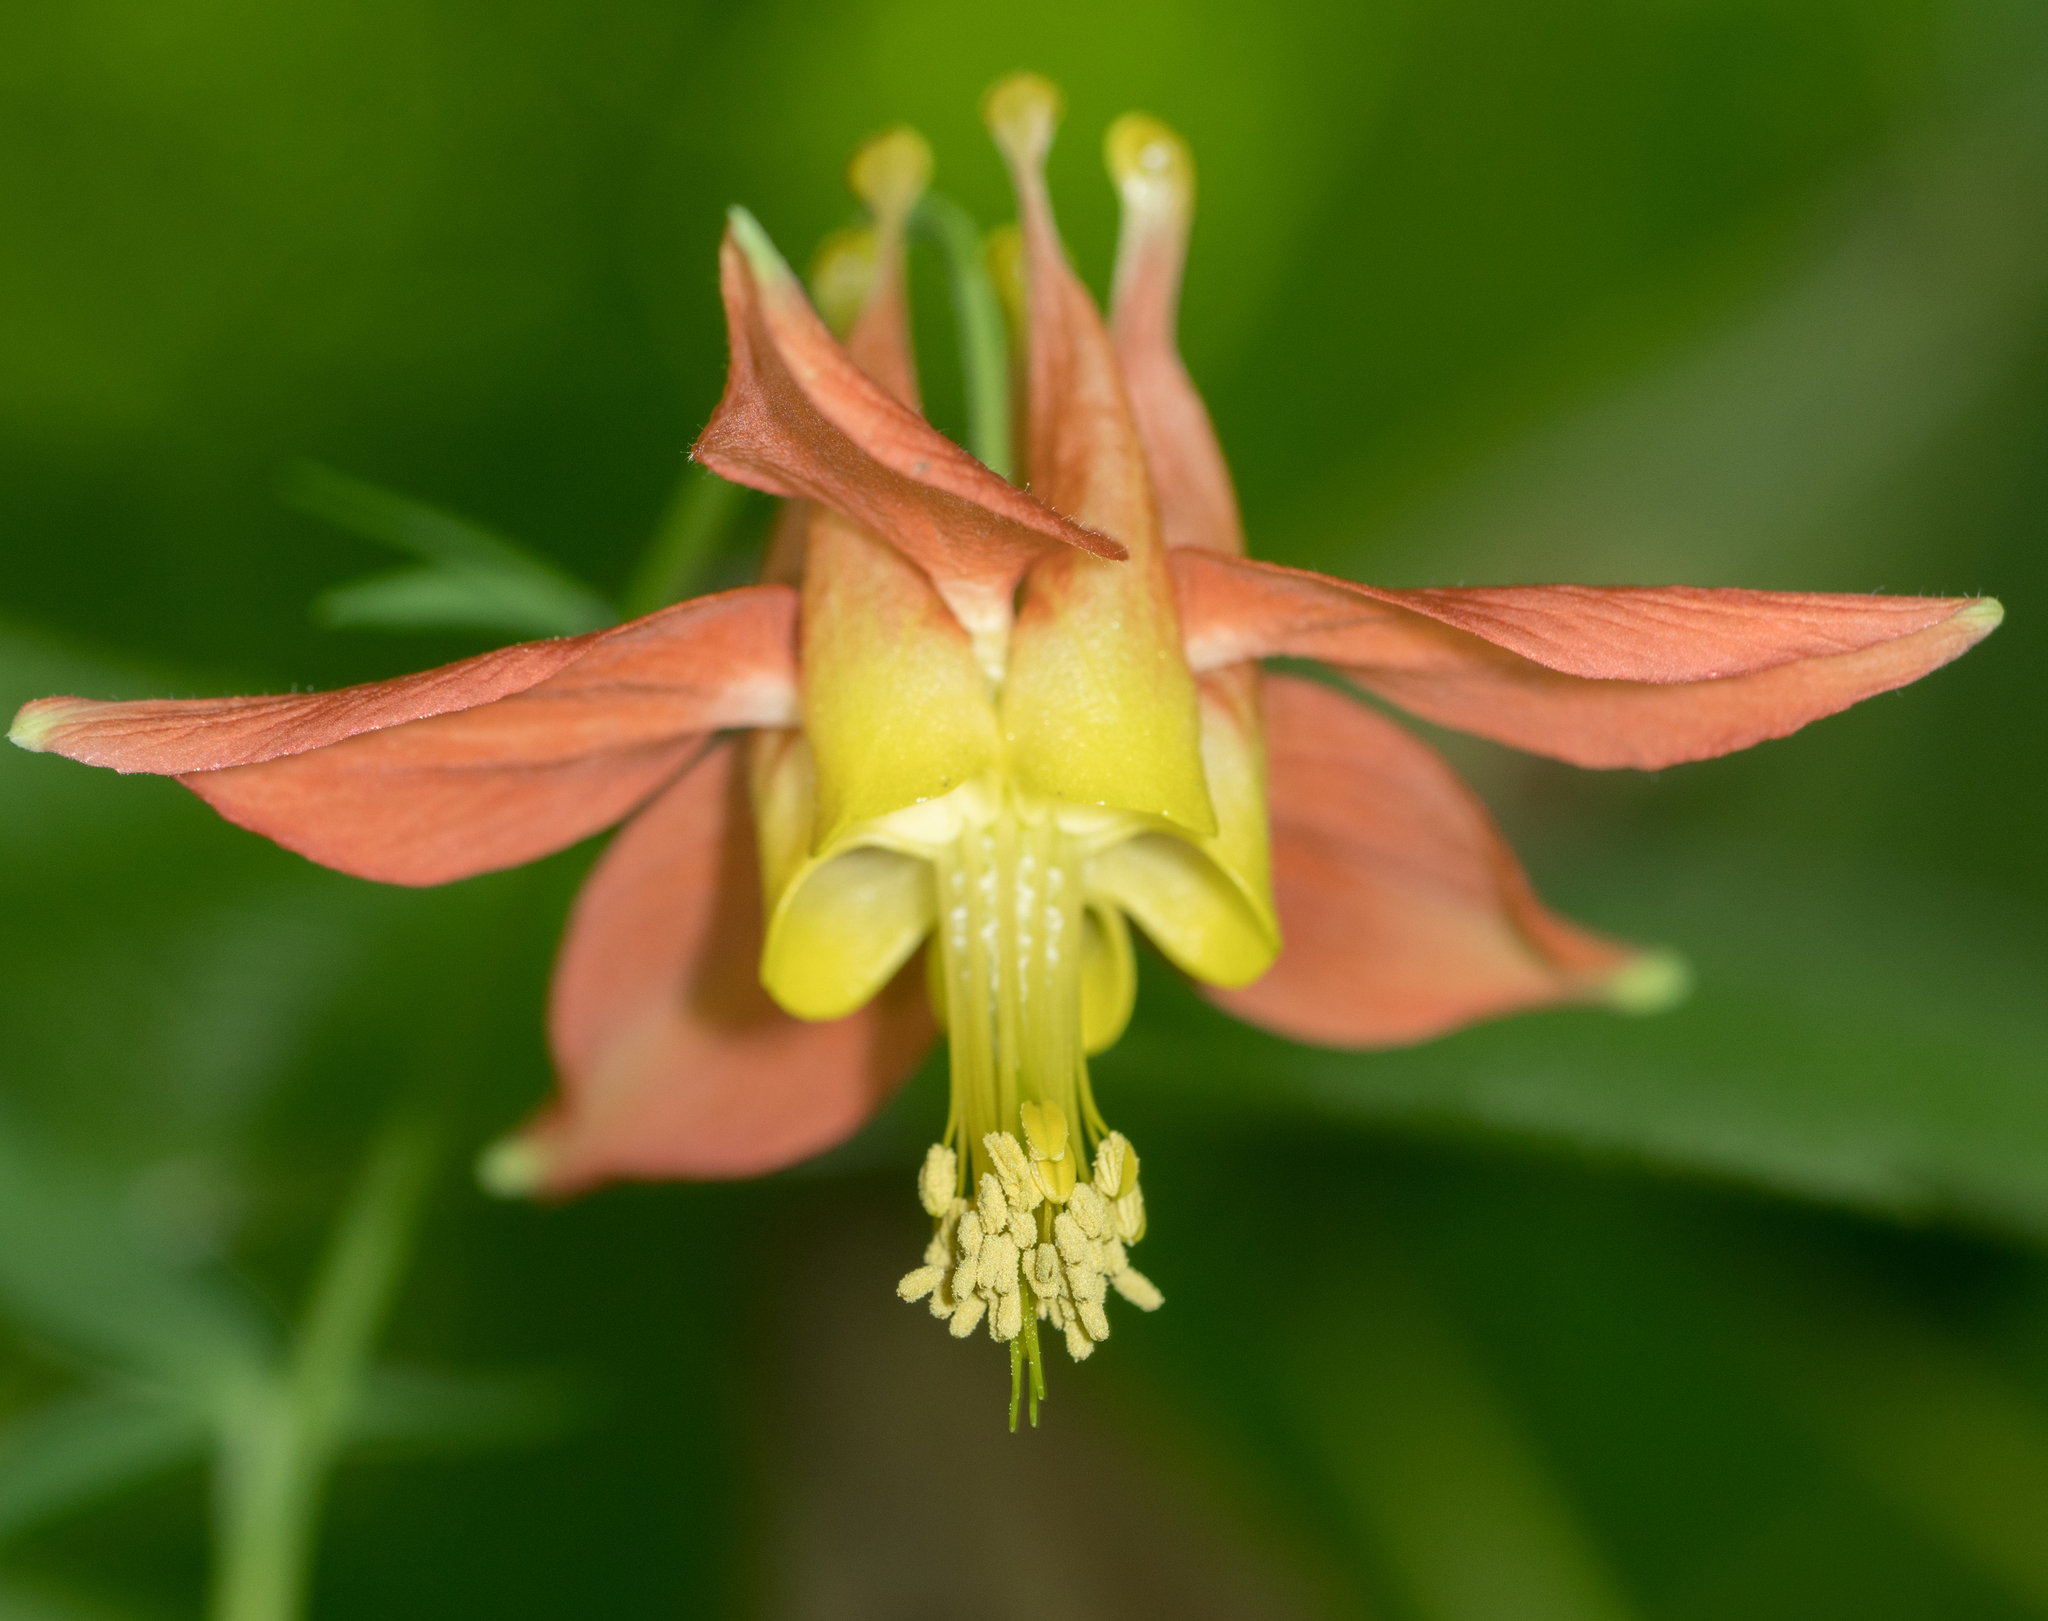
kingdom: Plantae
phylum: Tracheophyta
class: Magnoliopsida
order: Ranunculales
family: Ranunculaceae
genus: Aquilegia
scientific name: Aquilegia formosa
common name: Sitka columbine
